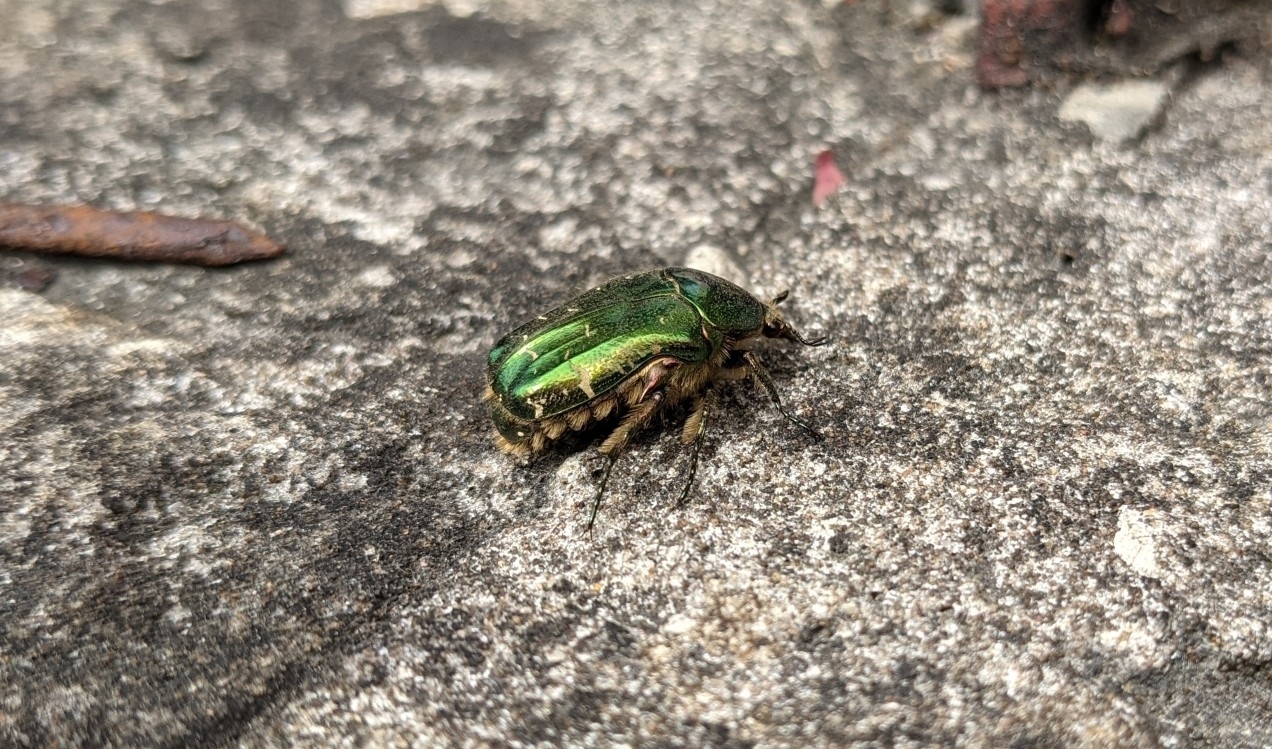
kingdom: Animalia
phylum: Arthropoda
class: Insecta
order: Coleoptera
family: Scarabaeidae
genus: Cetonia
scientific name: Cetonia aurata
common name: Rose chafer
